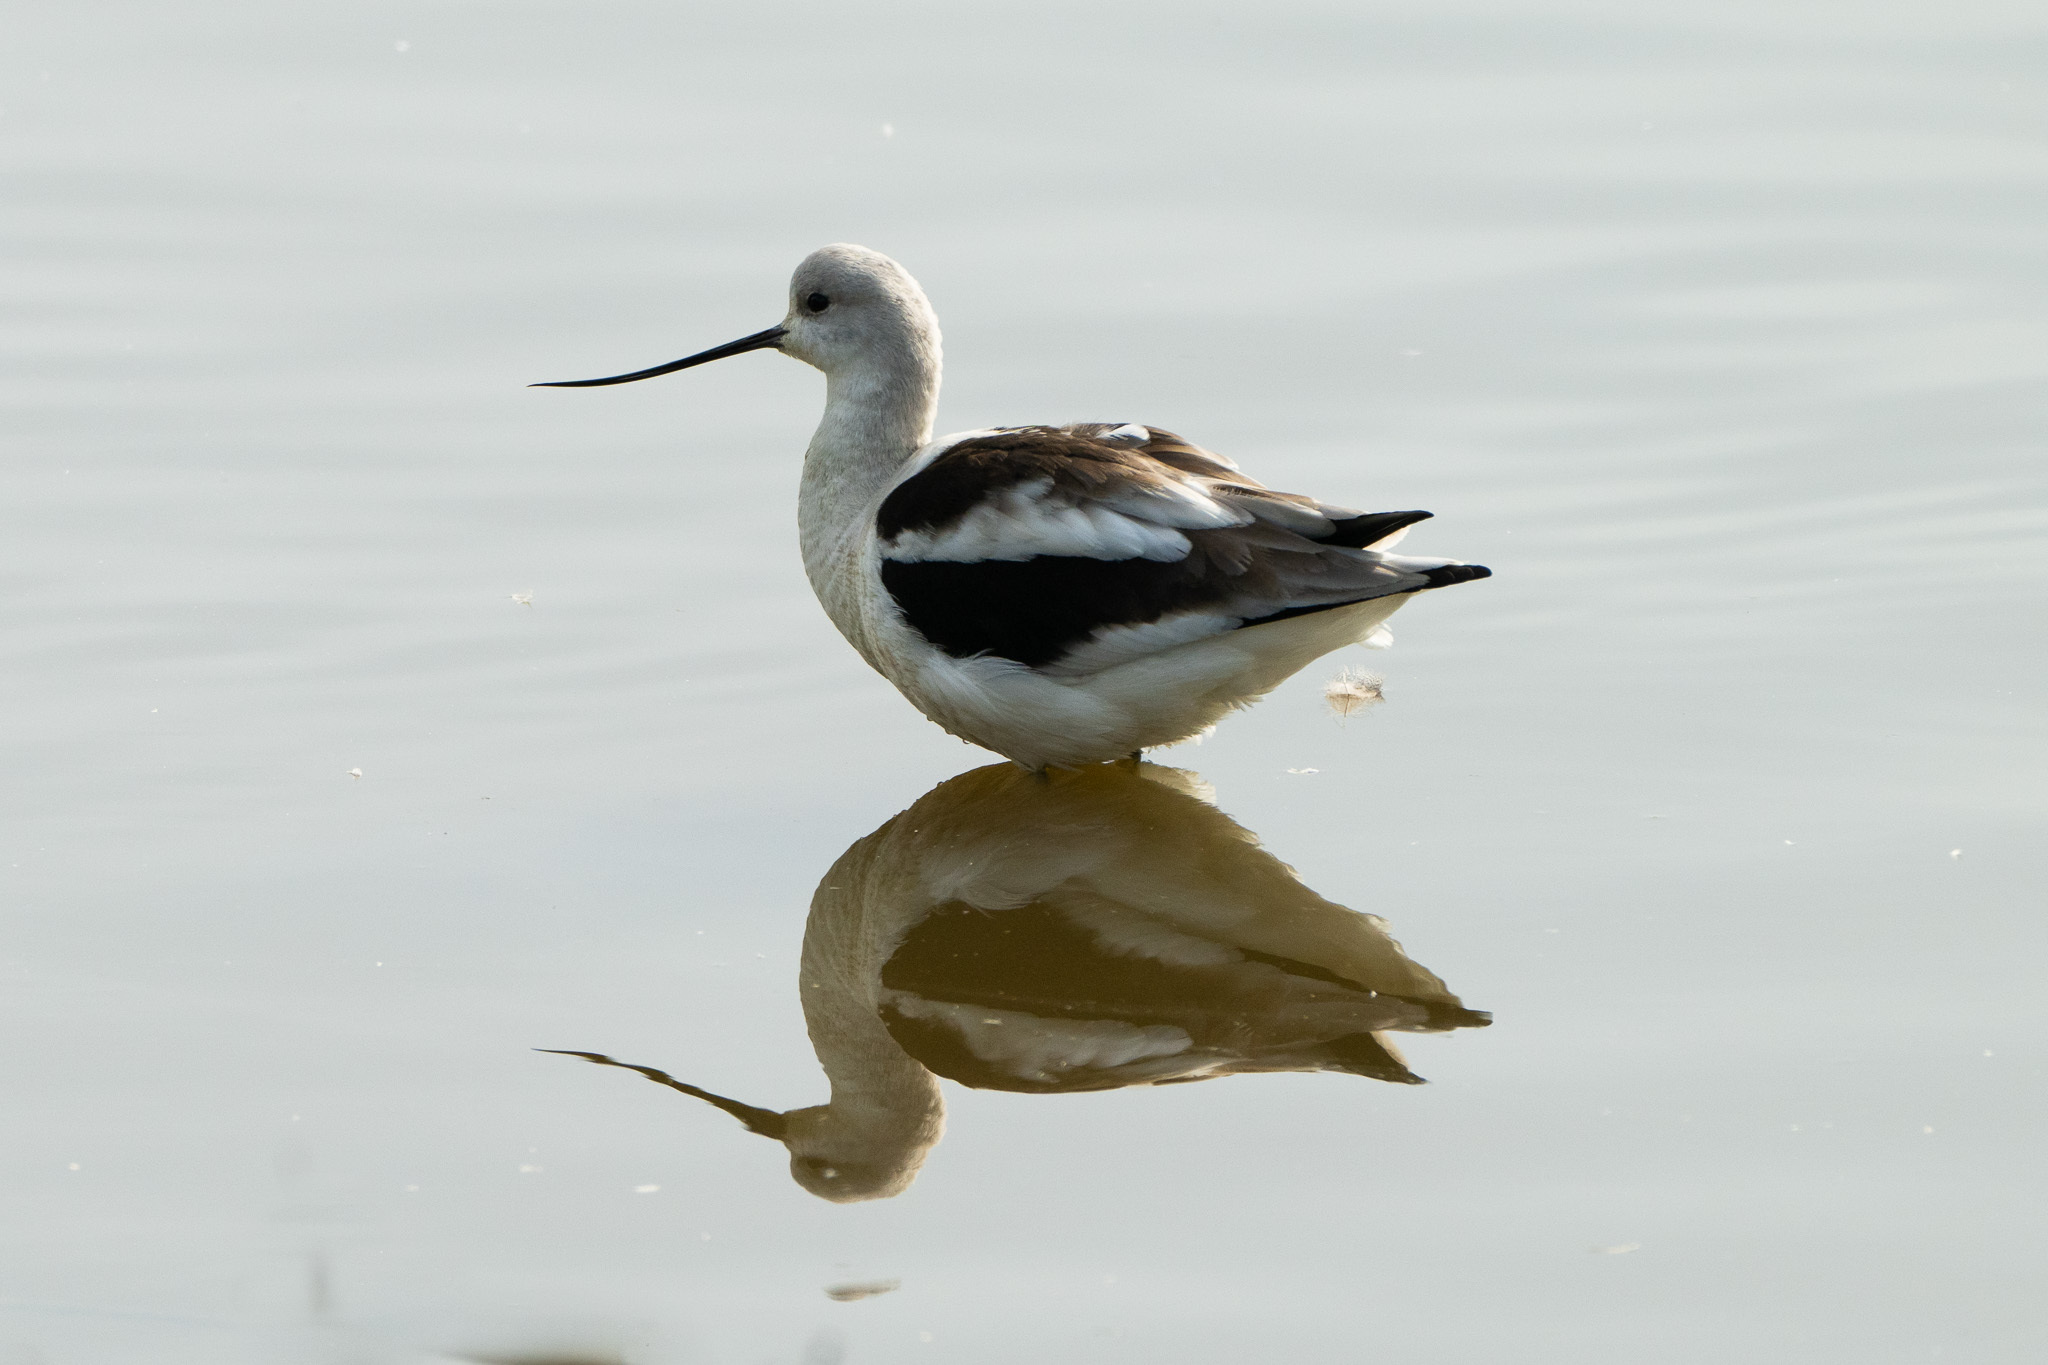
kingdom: Animalia
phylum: Chordata
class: Aves
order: Charadriiformes
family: Recurvirostridae
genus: Recurvirostra
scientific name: Recurvirostra americana
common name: American avocet
